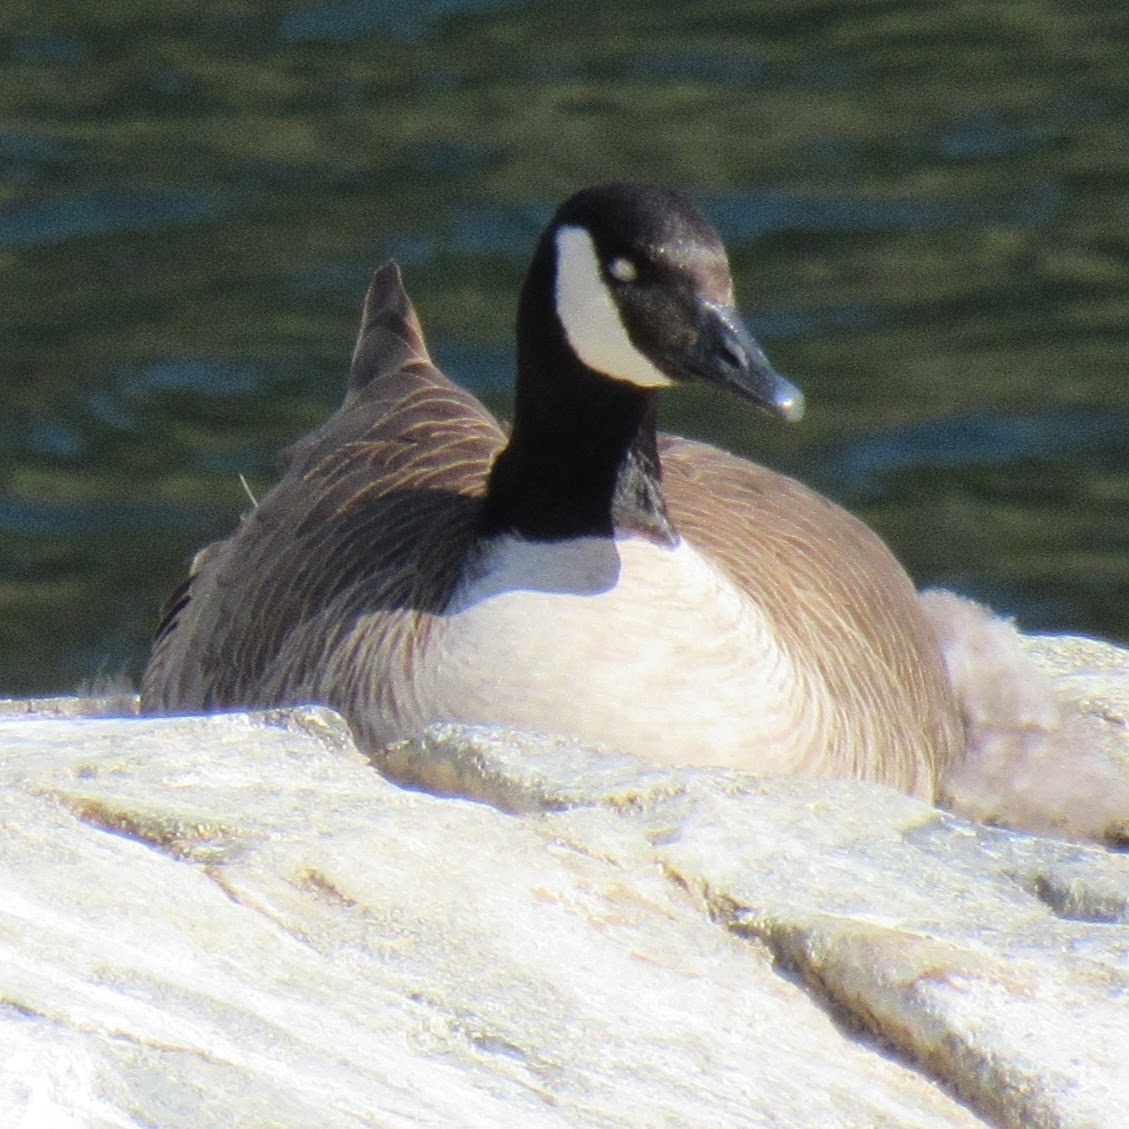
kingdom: Animalia
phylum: Chordata
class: Aves
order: Anseriformes
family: Anatidae
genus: Branta
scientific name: Branta canadensis
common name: Canada goose
